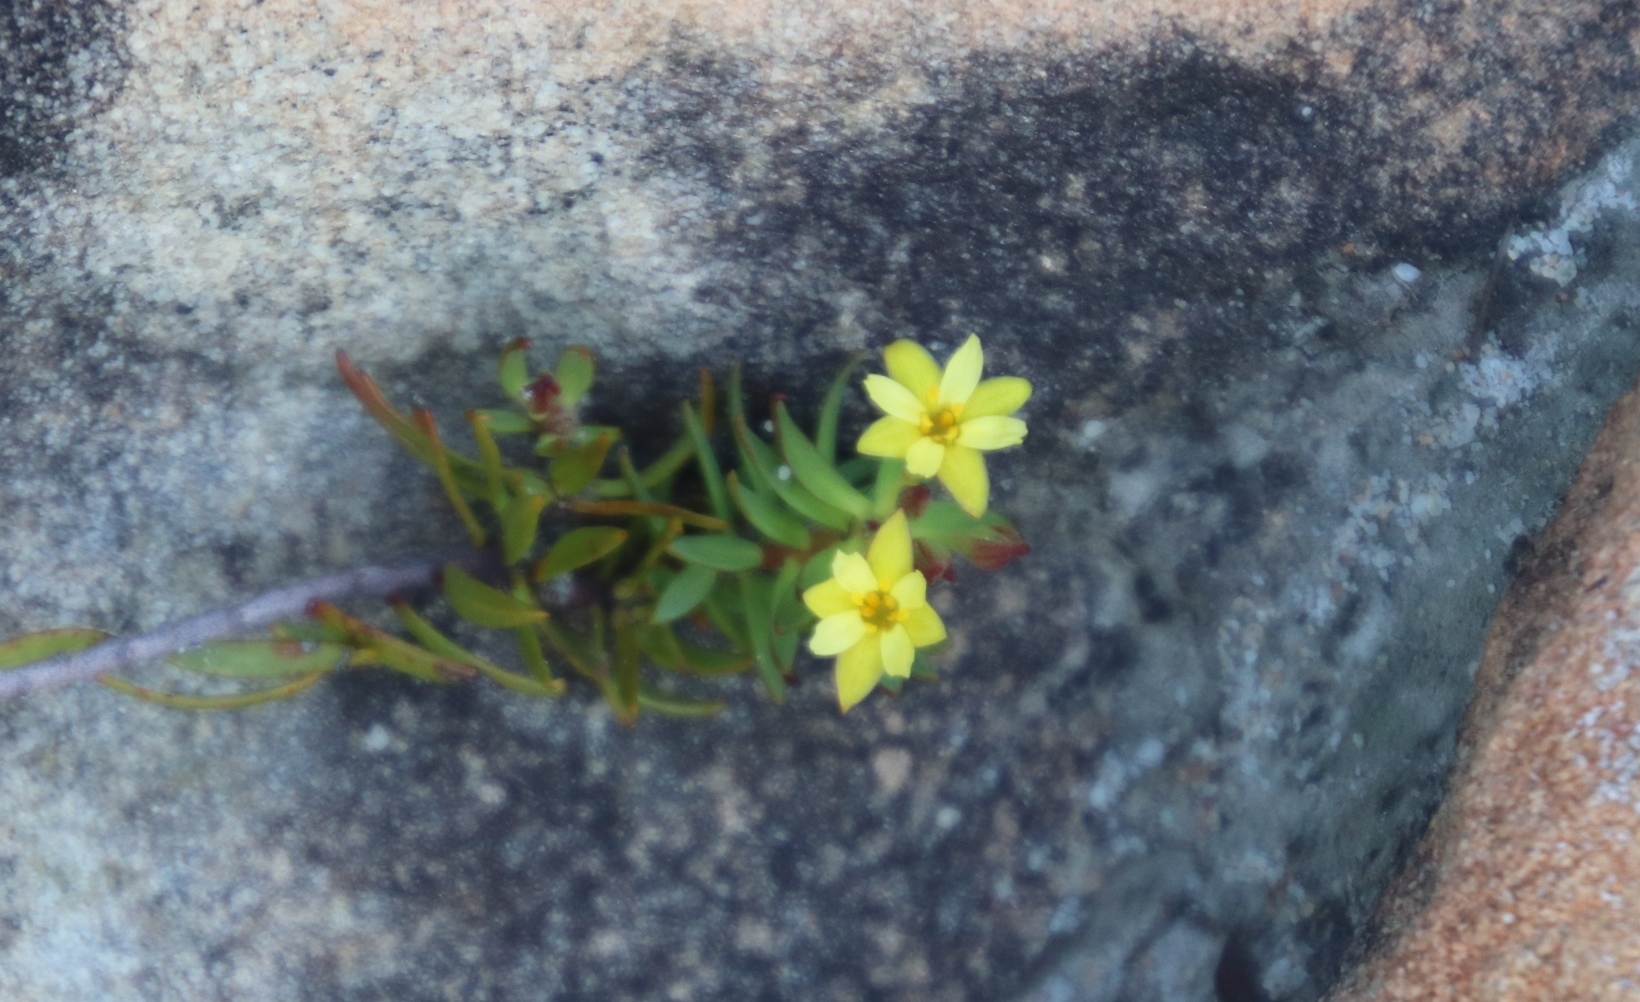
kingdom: Plantae
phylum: Tracheophyta
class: Magnoliopsida
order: Malvales
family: Thymelaeaceae
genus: Gnidia
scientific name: Gnidia juniperifolia
